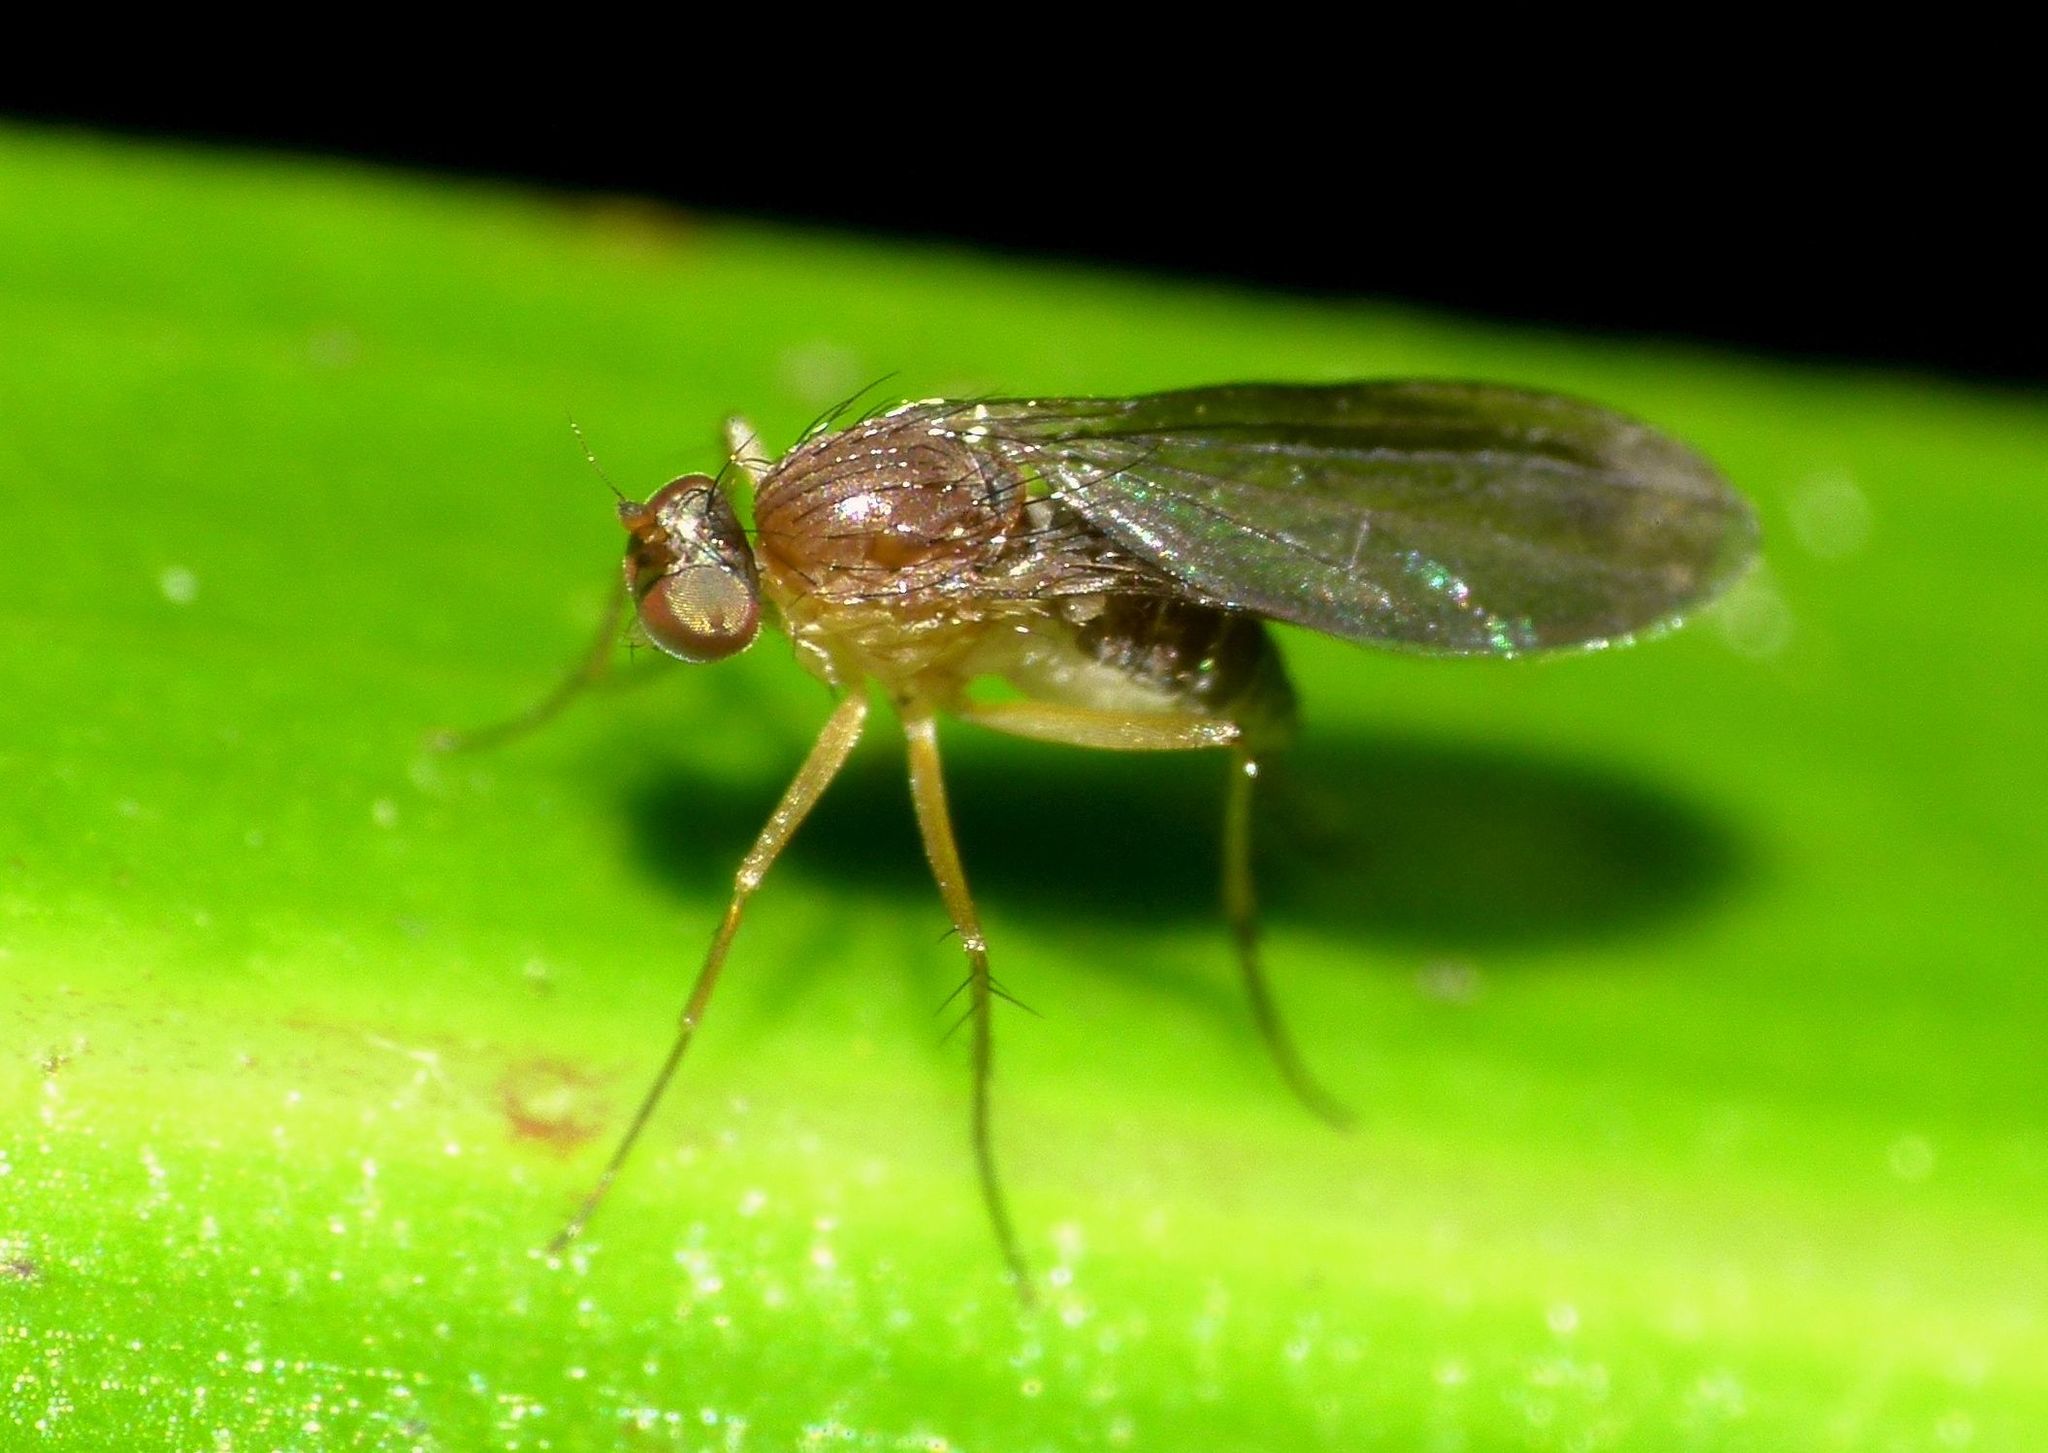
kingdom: Animalia
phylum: Arthropoda
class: Insecta
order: Diptera
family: Dolichopodidae
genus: Australachalcus
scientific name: Australachalcus
